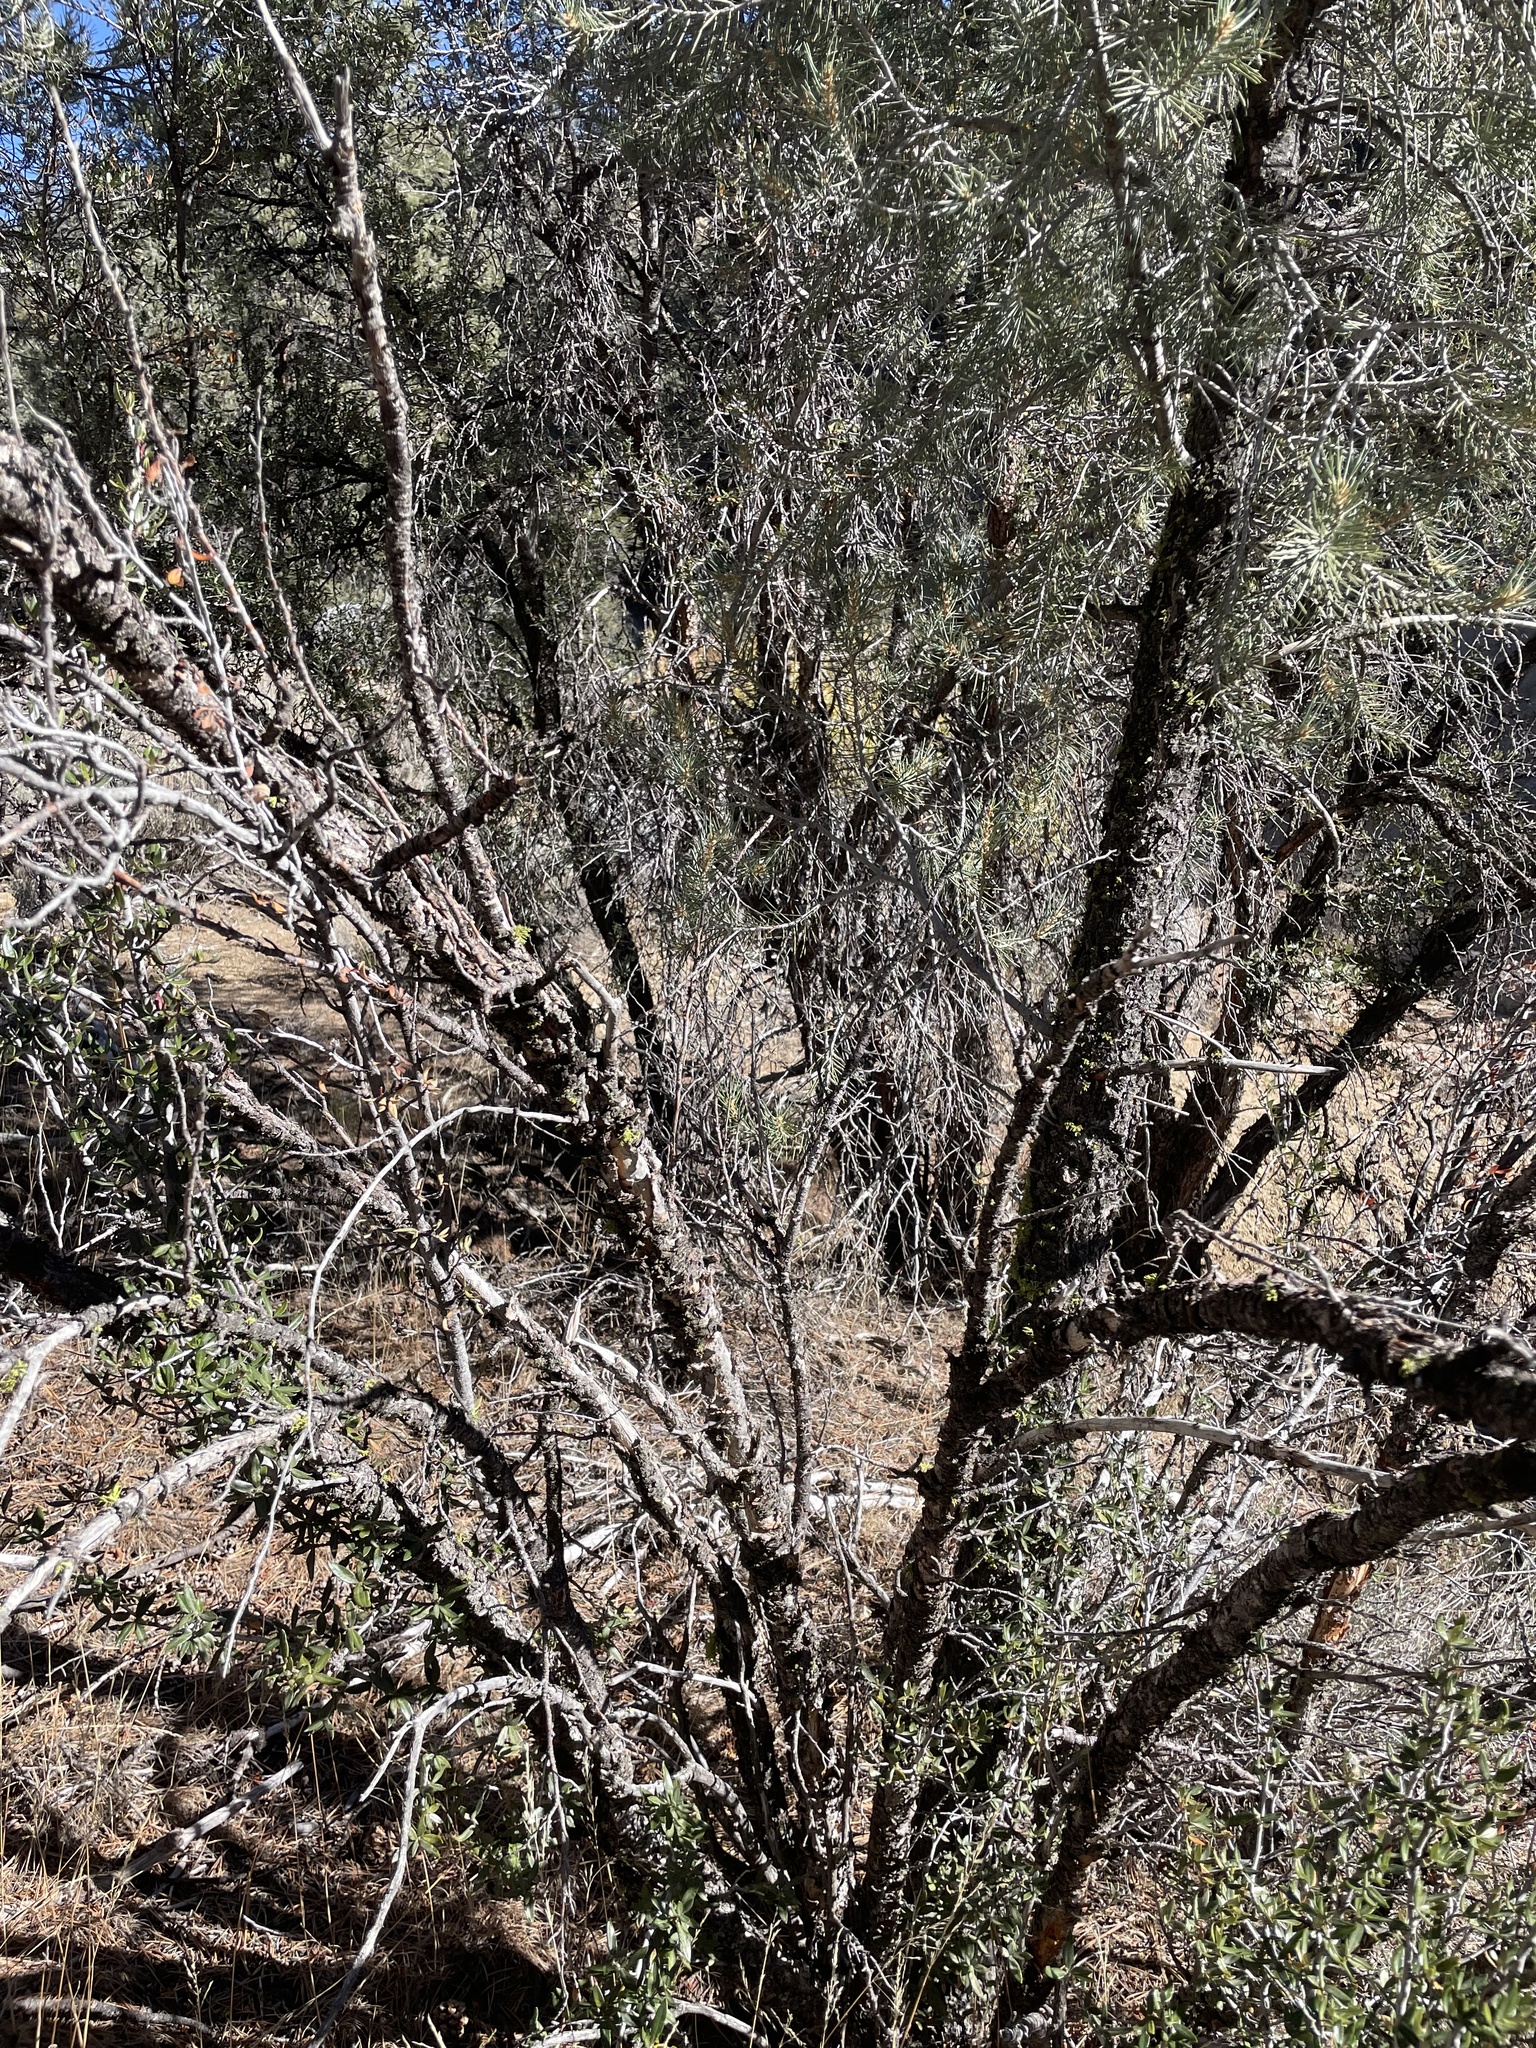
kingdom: Plantae
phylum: Tracheophyta
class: Magnoliopsida
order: Rosales
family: Rosaceae
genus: Cercocarpus
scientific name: Cercocarpus ledifolius
